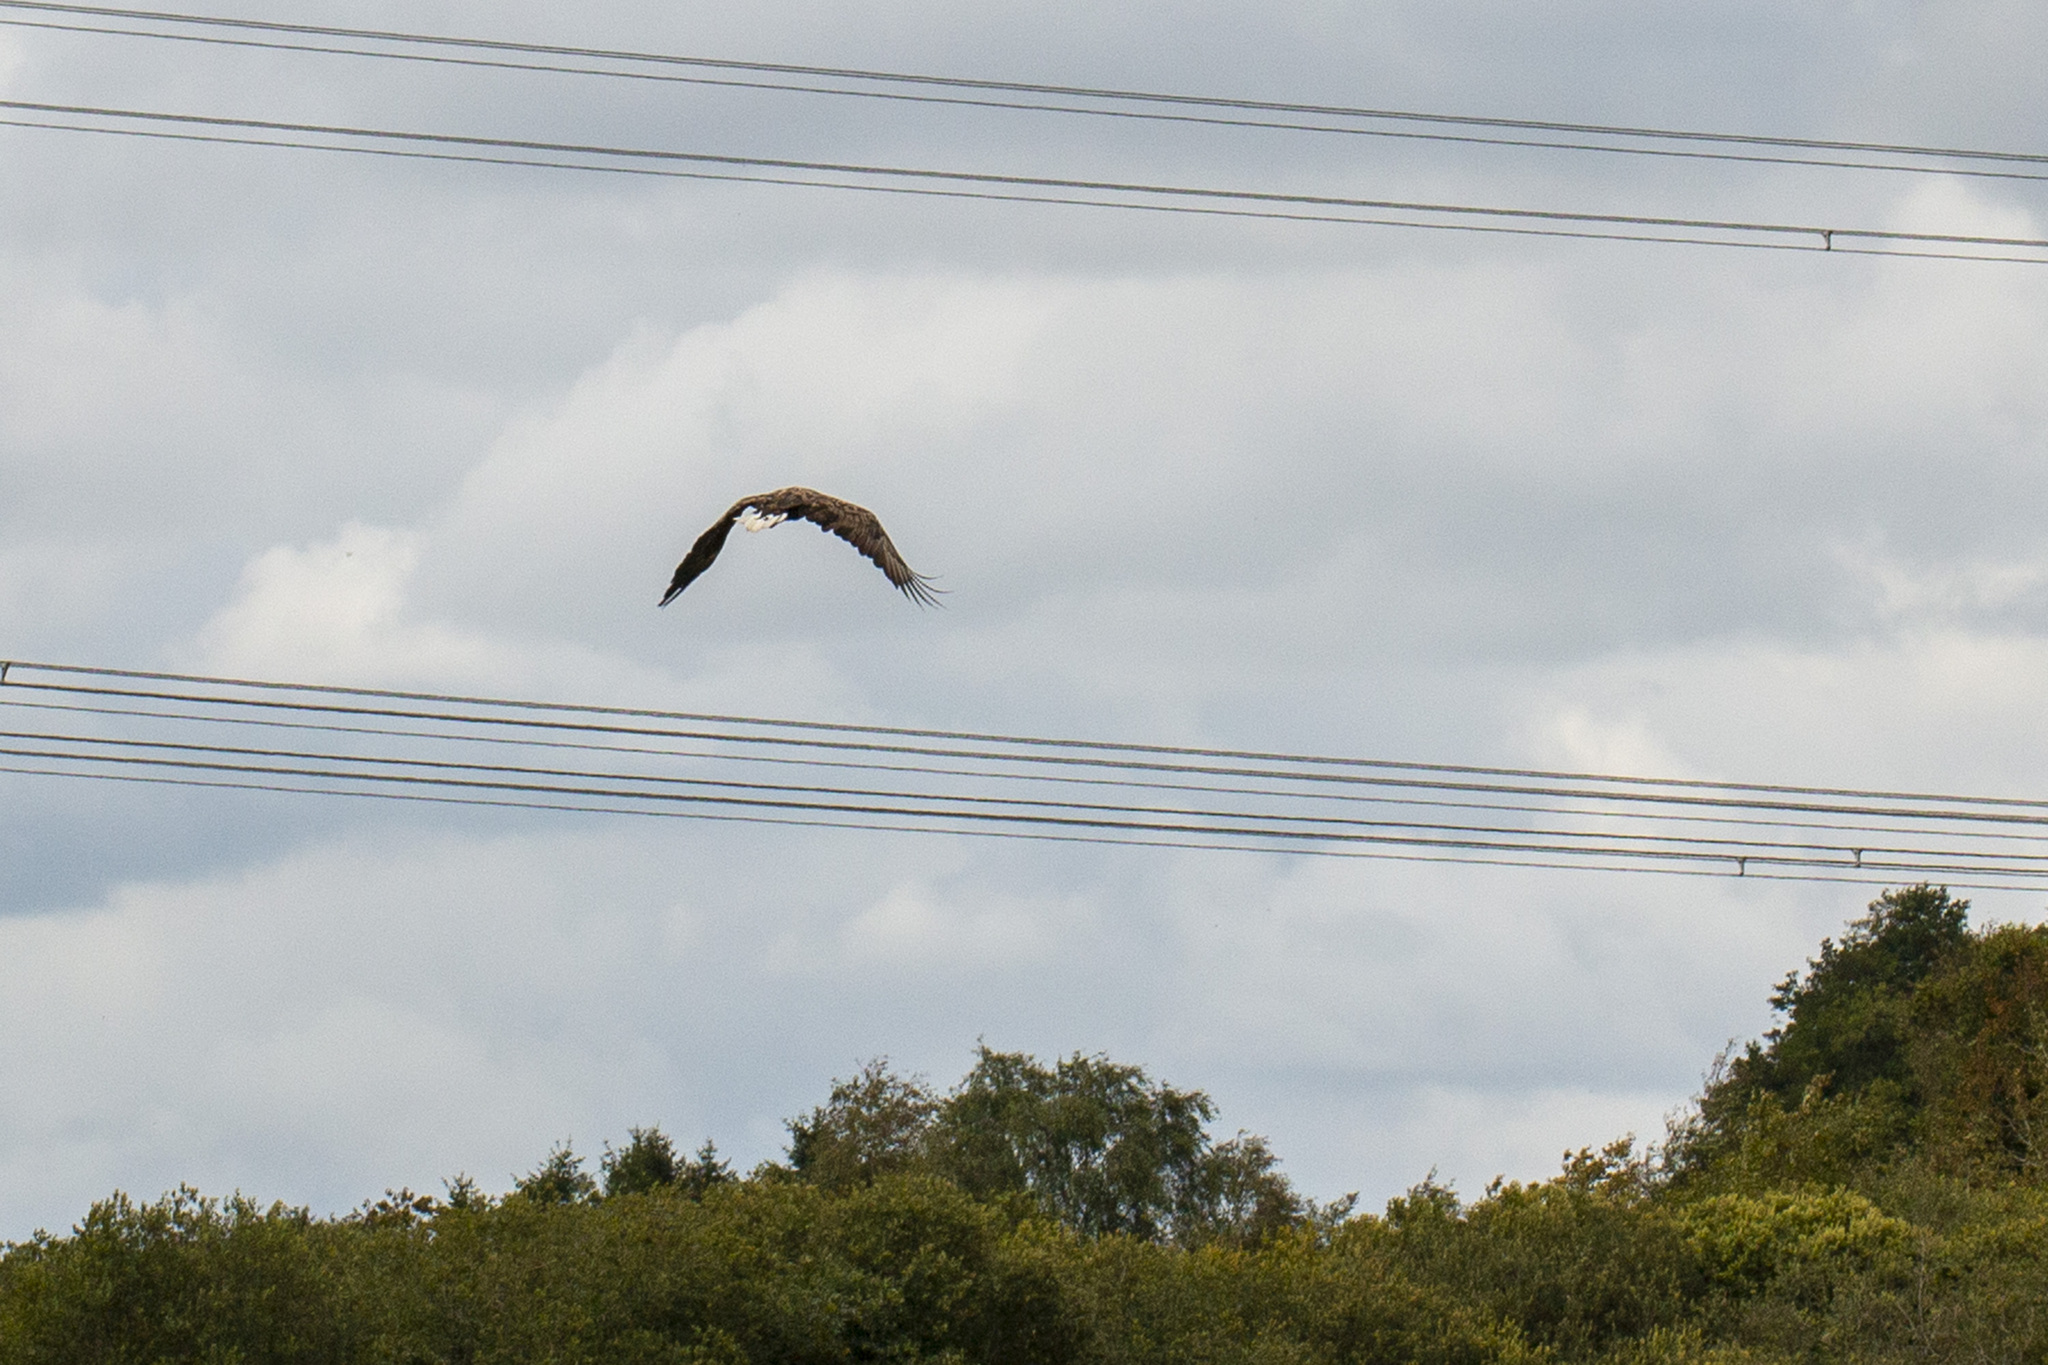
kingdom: Animalia
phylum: Chordata
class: Aves
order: Accipitriformes
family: Accipitridae
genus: Haliaeetus
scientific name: Haliaeetus albicilla
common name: White-tailed eagle
